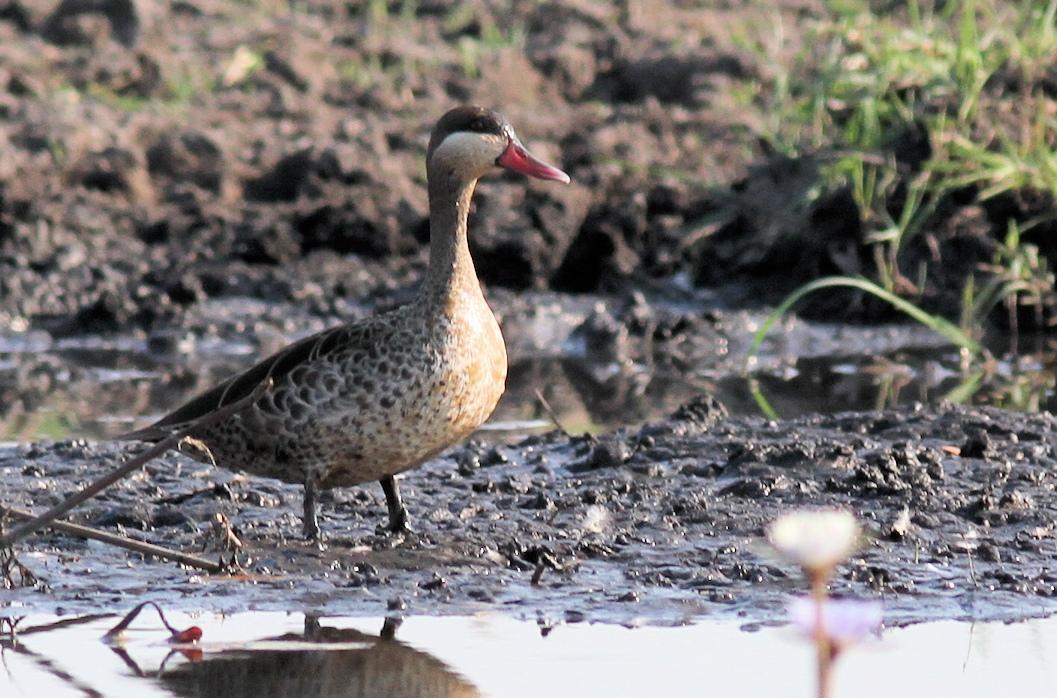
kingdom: Animalia
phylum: Chordata
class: Aves
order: Anseriformes
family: Anatidae
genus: Anas
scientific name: Anas erythrorhyncha
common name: Red-billed teal
